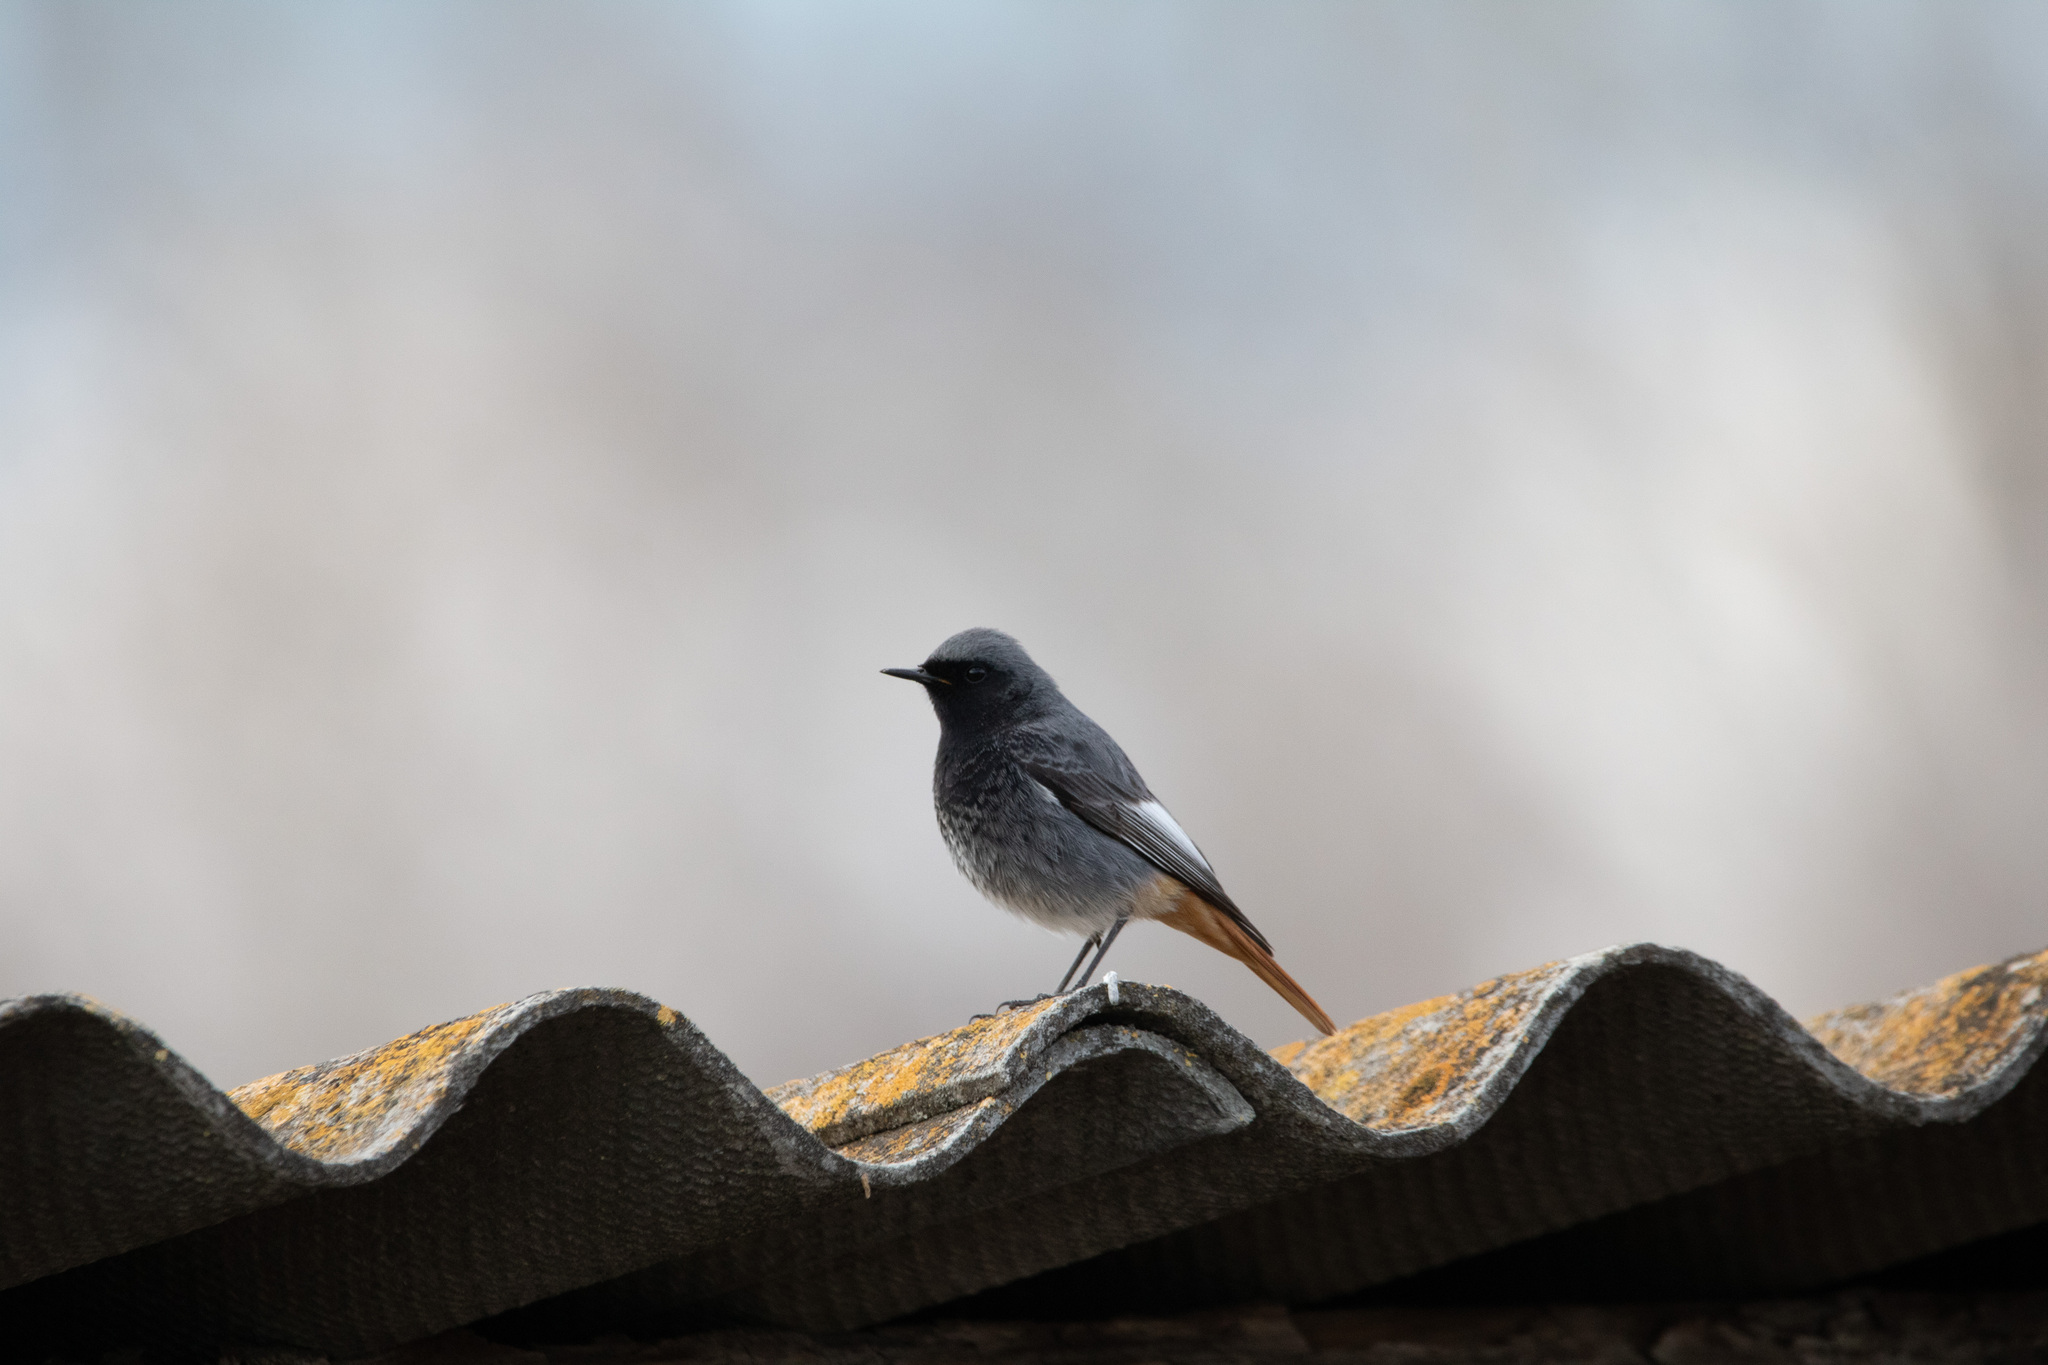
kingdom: Animalia
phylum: Chordata
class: Aves
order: Passeriformes
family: Muscicapidae
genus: Phoenicurus
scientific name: Phoenicurus ochruros
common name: Black redstart
